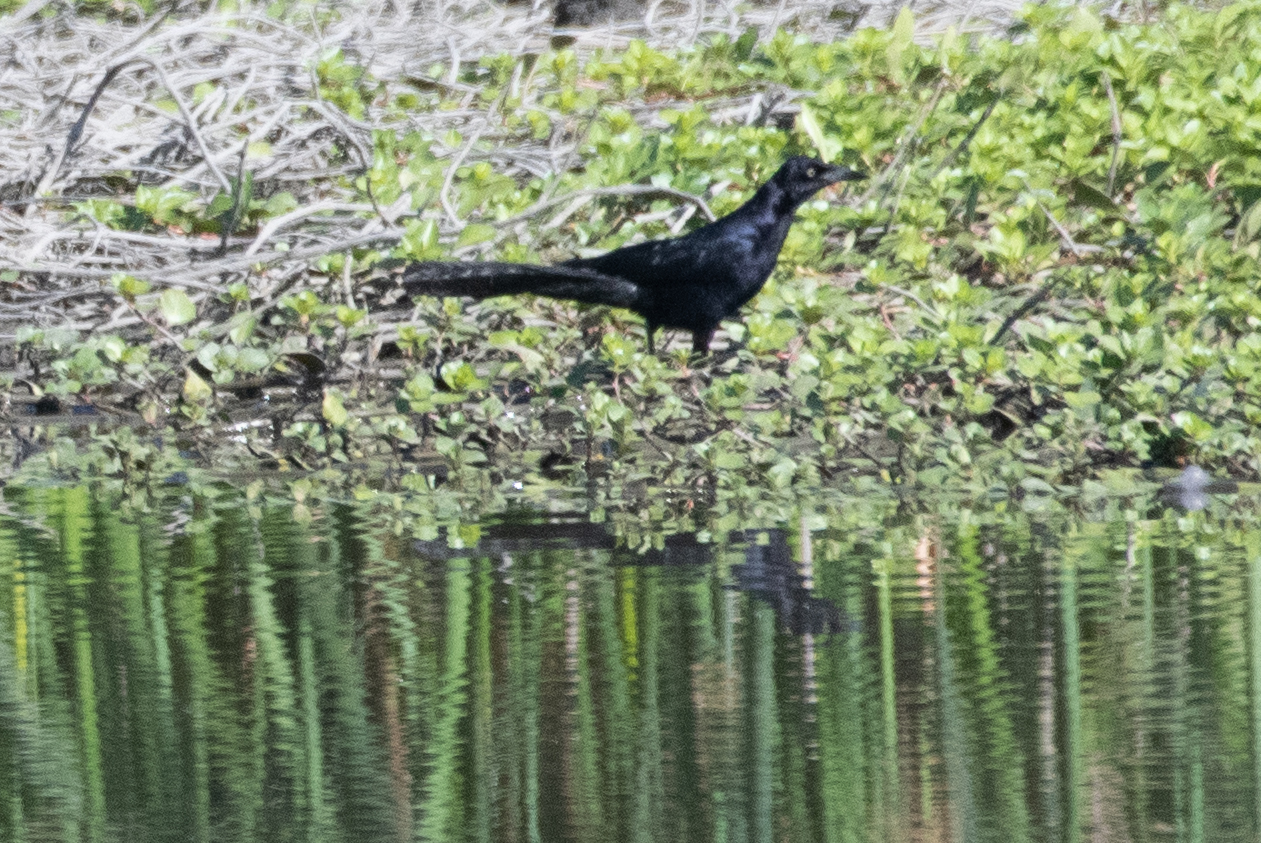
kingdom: Animalia
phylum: Chordata
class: Aves
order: Passeriformes
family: Icteridae
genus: Quiscalus
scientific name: Quiscalus mexicanus
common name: Great-tailed grackle
